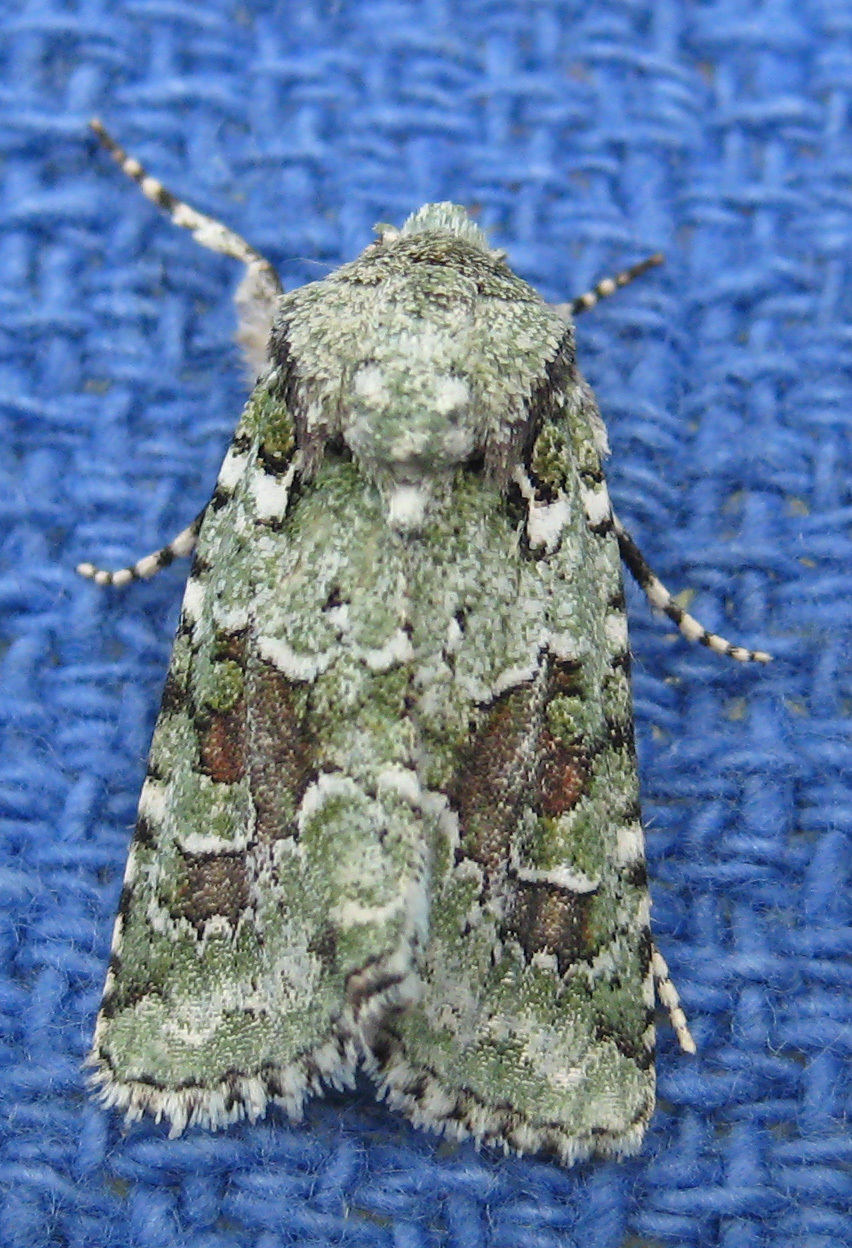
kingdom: Animalia
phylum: Arthropoda
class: Insecta
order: Lepidoptera
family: Noctuidae
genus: Lacinipolia
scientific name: Lacinipolia laudabilis
